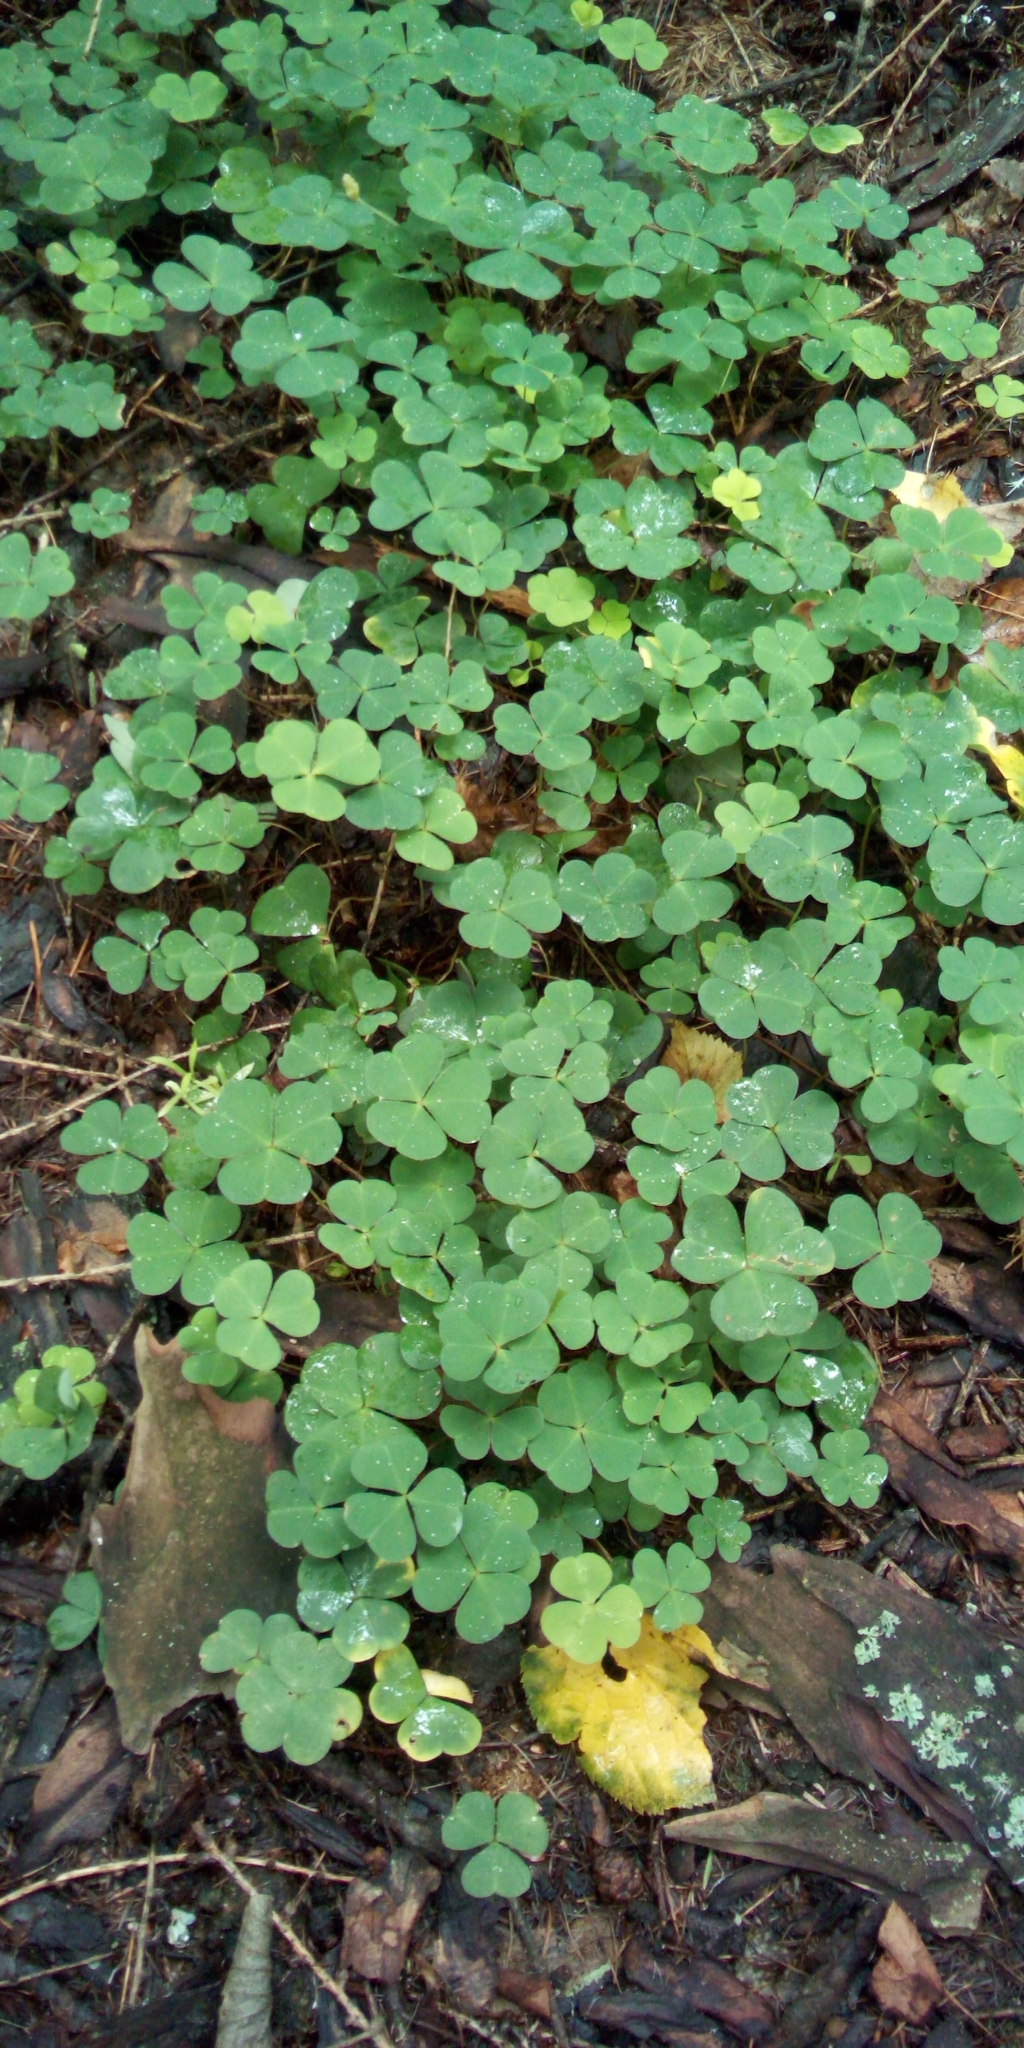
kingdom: Plantae
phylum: Tracheophyta
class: Magnoliopsida
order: Oxalidales
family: Oxalidaceae
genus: Oxalis
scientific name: Oxalis acetosella
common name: Wood-sorrel
